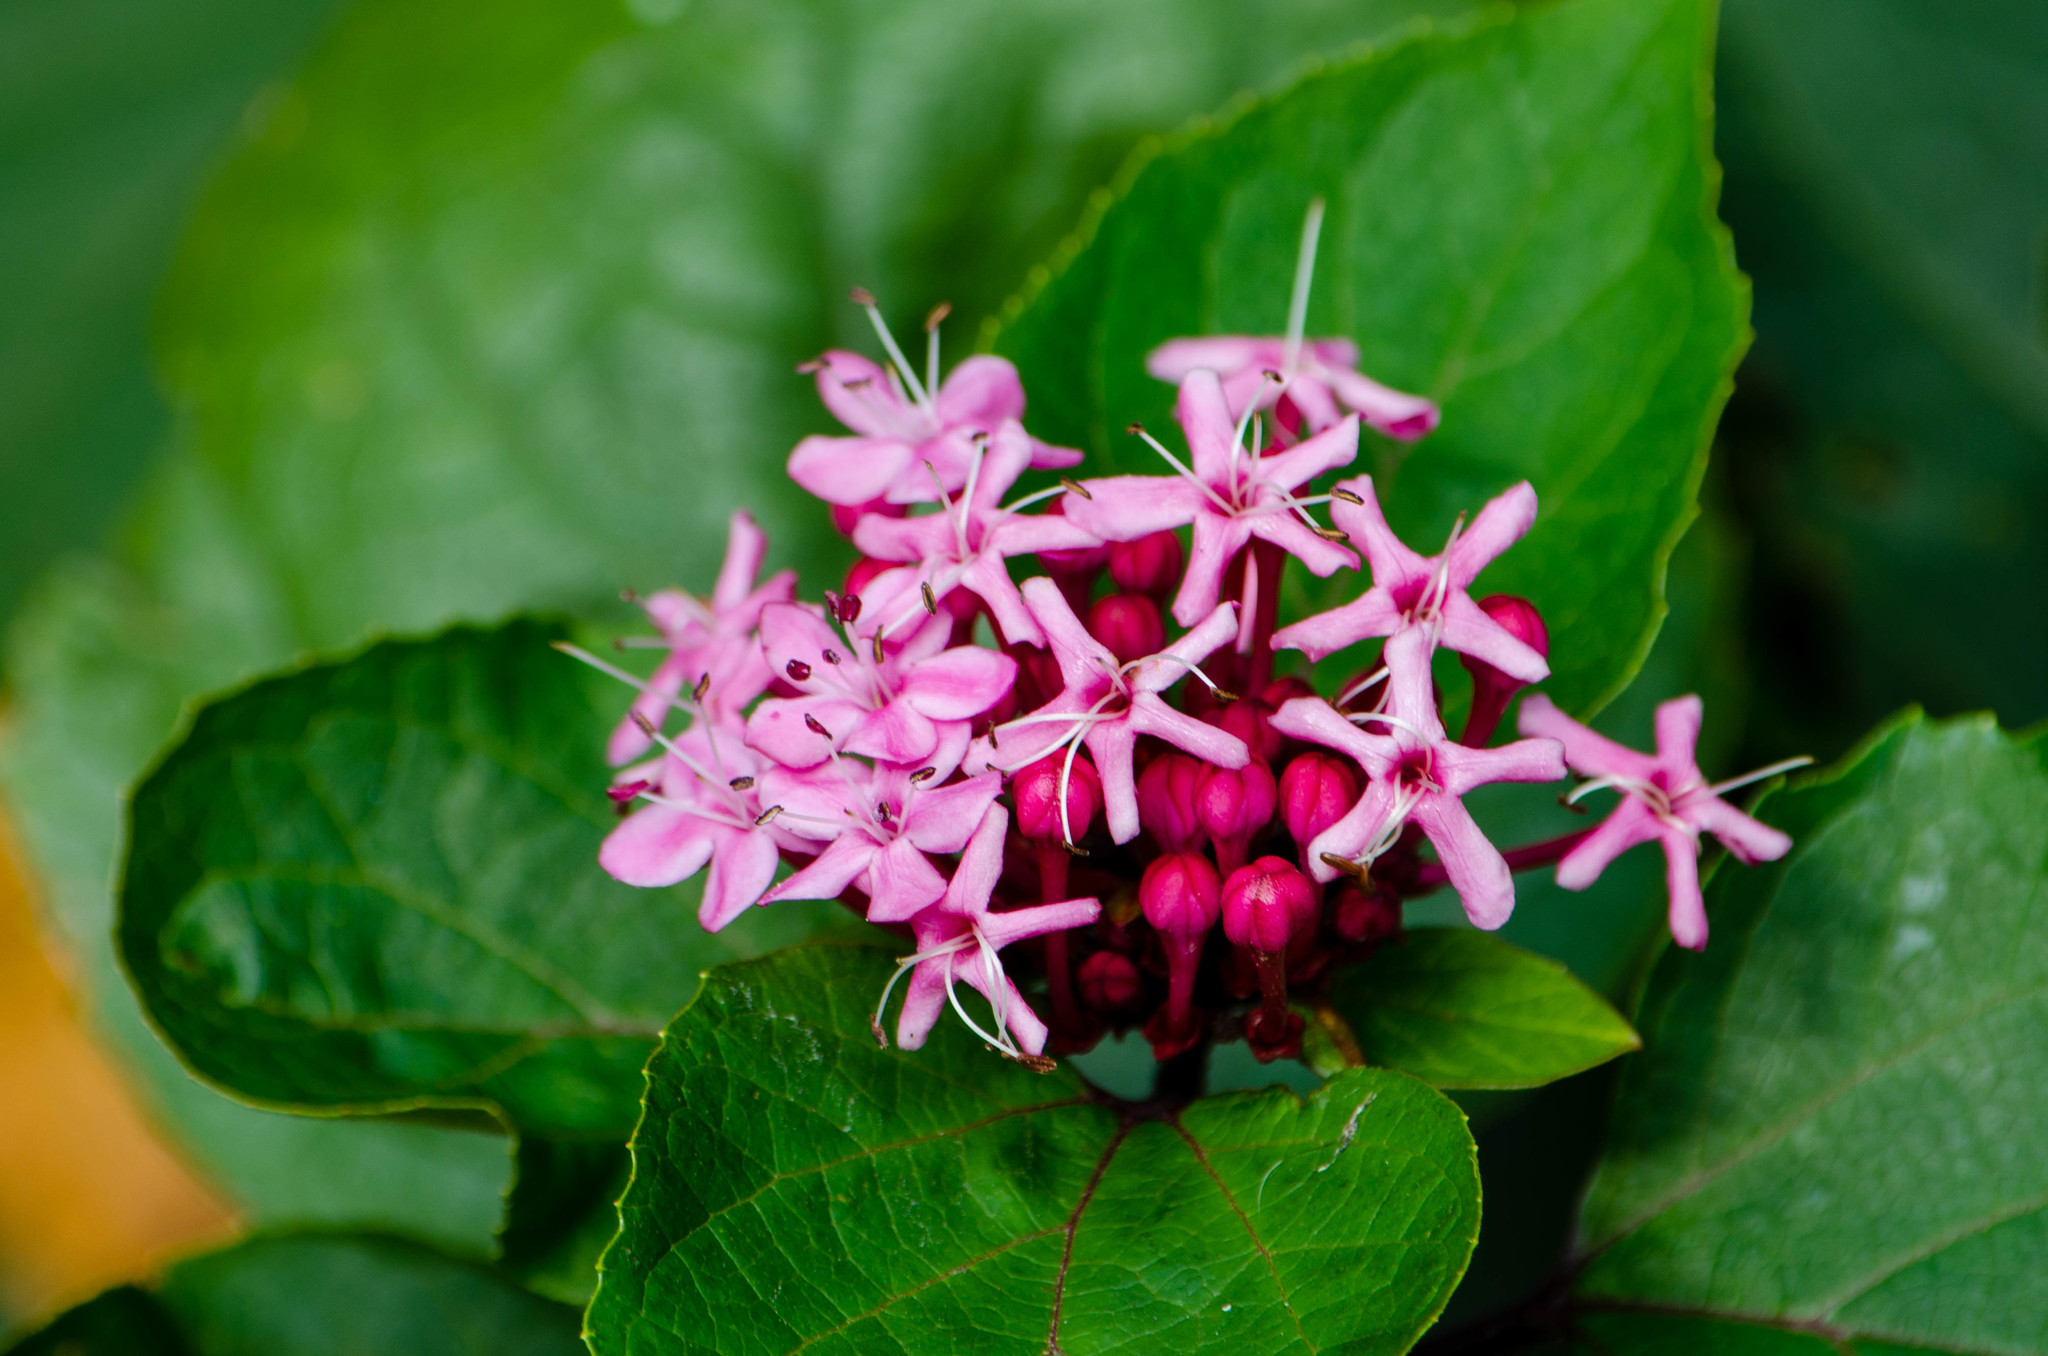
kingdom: Plantae
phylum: Tracheophyta
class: Magnoliopsida
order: Lamiales
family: Lamiaceae
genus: Clerodendrum
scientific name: Clerodendrum bungei
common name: Rose glorybower
